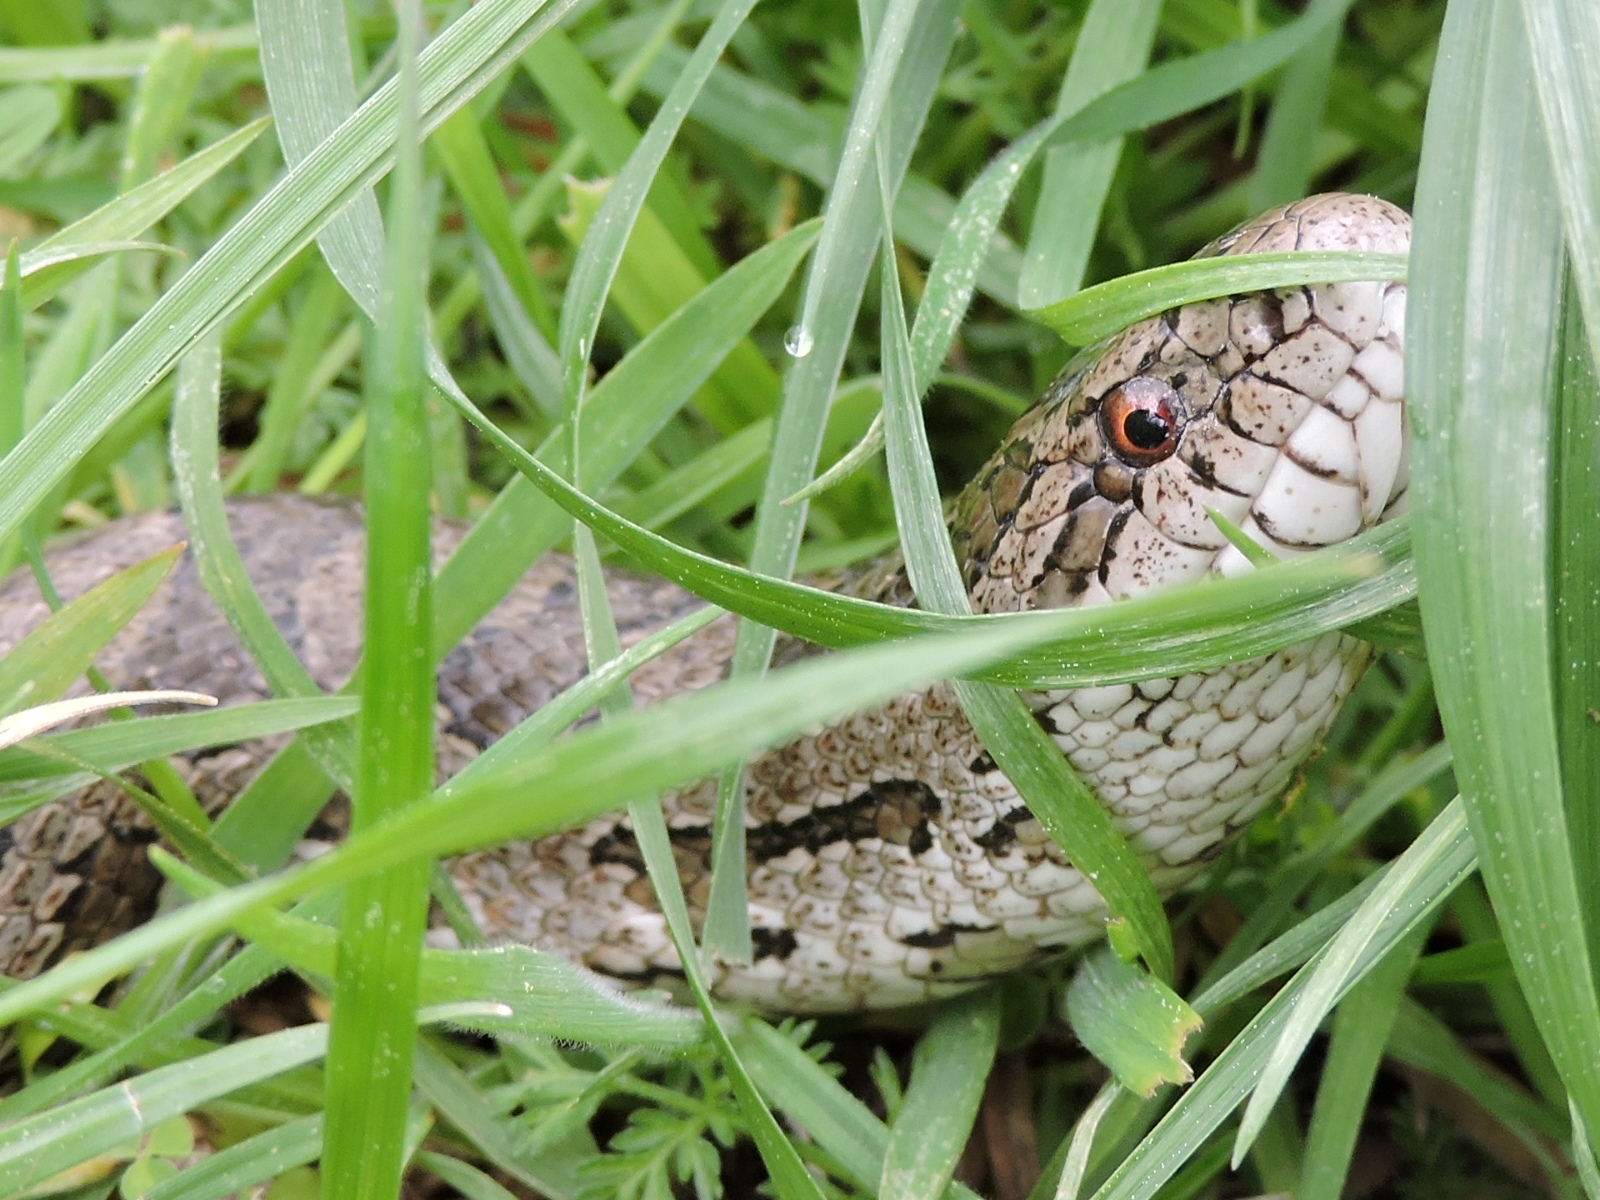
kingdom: Animalia
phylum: Chordata
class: Squamata
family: Colubridae
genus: Lampropeltis
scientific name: Lampropeltis calligaster
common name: Prairie kingsnake
